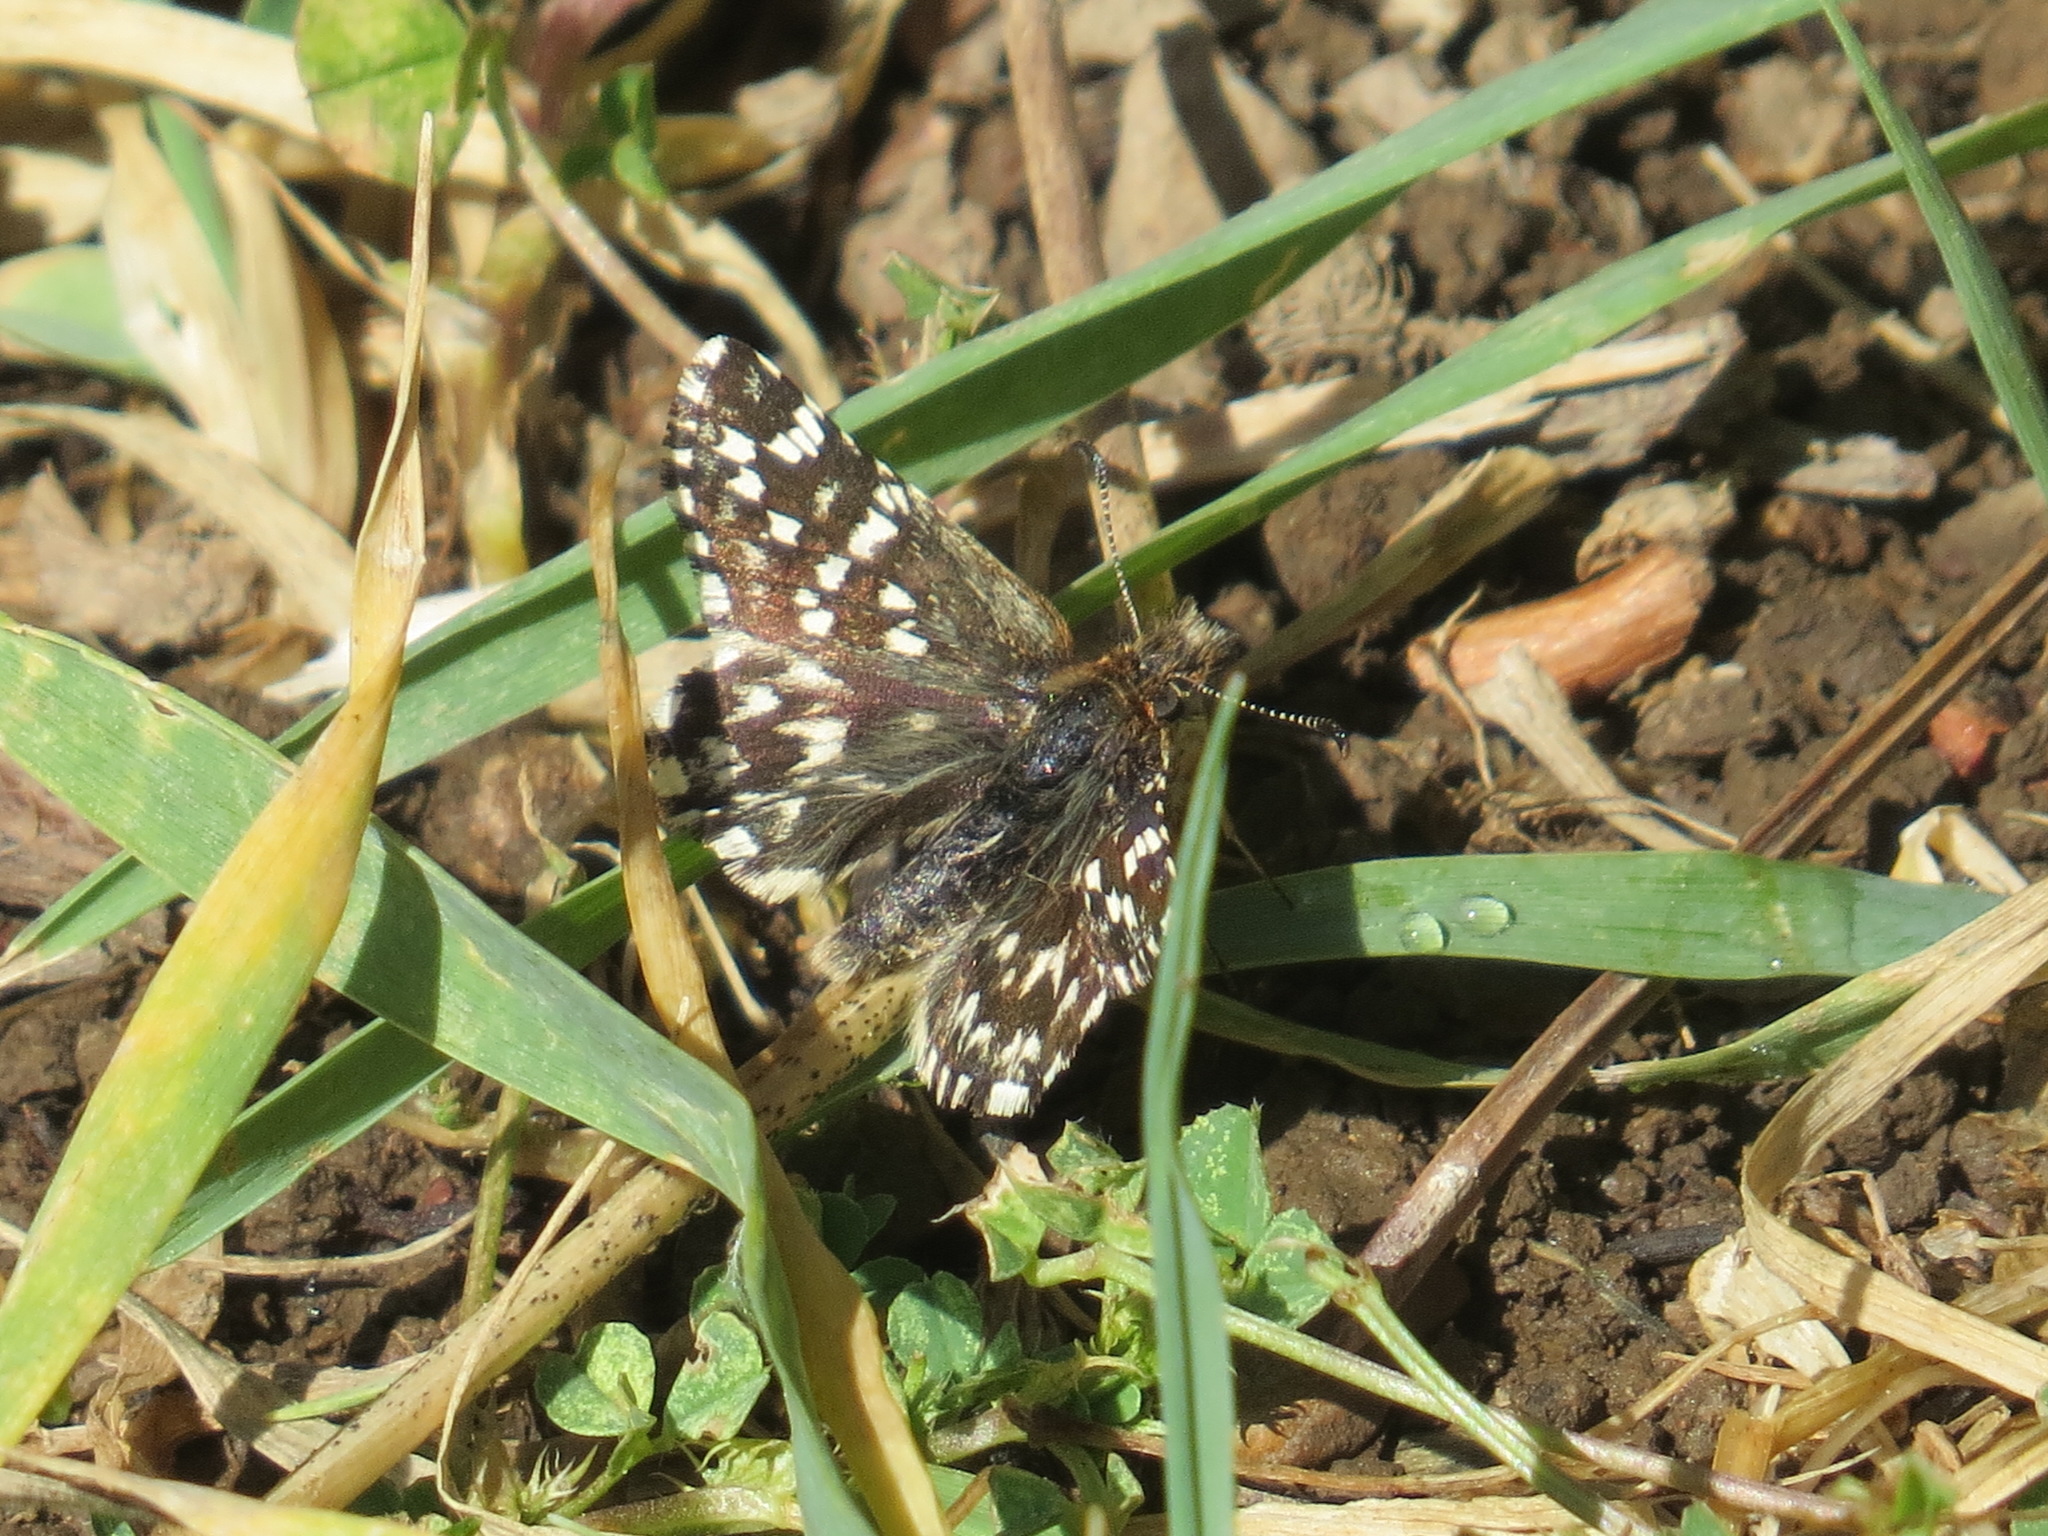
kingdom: Animalia
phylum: Arthropoda
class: Insecta
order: Lepidoptera
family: Hesperiidae
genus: Pyrgus
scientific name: Pyrgus ruralis
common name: Two-banded checkered-skipper
